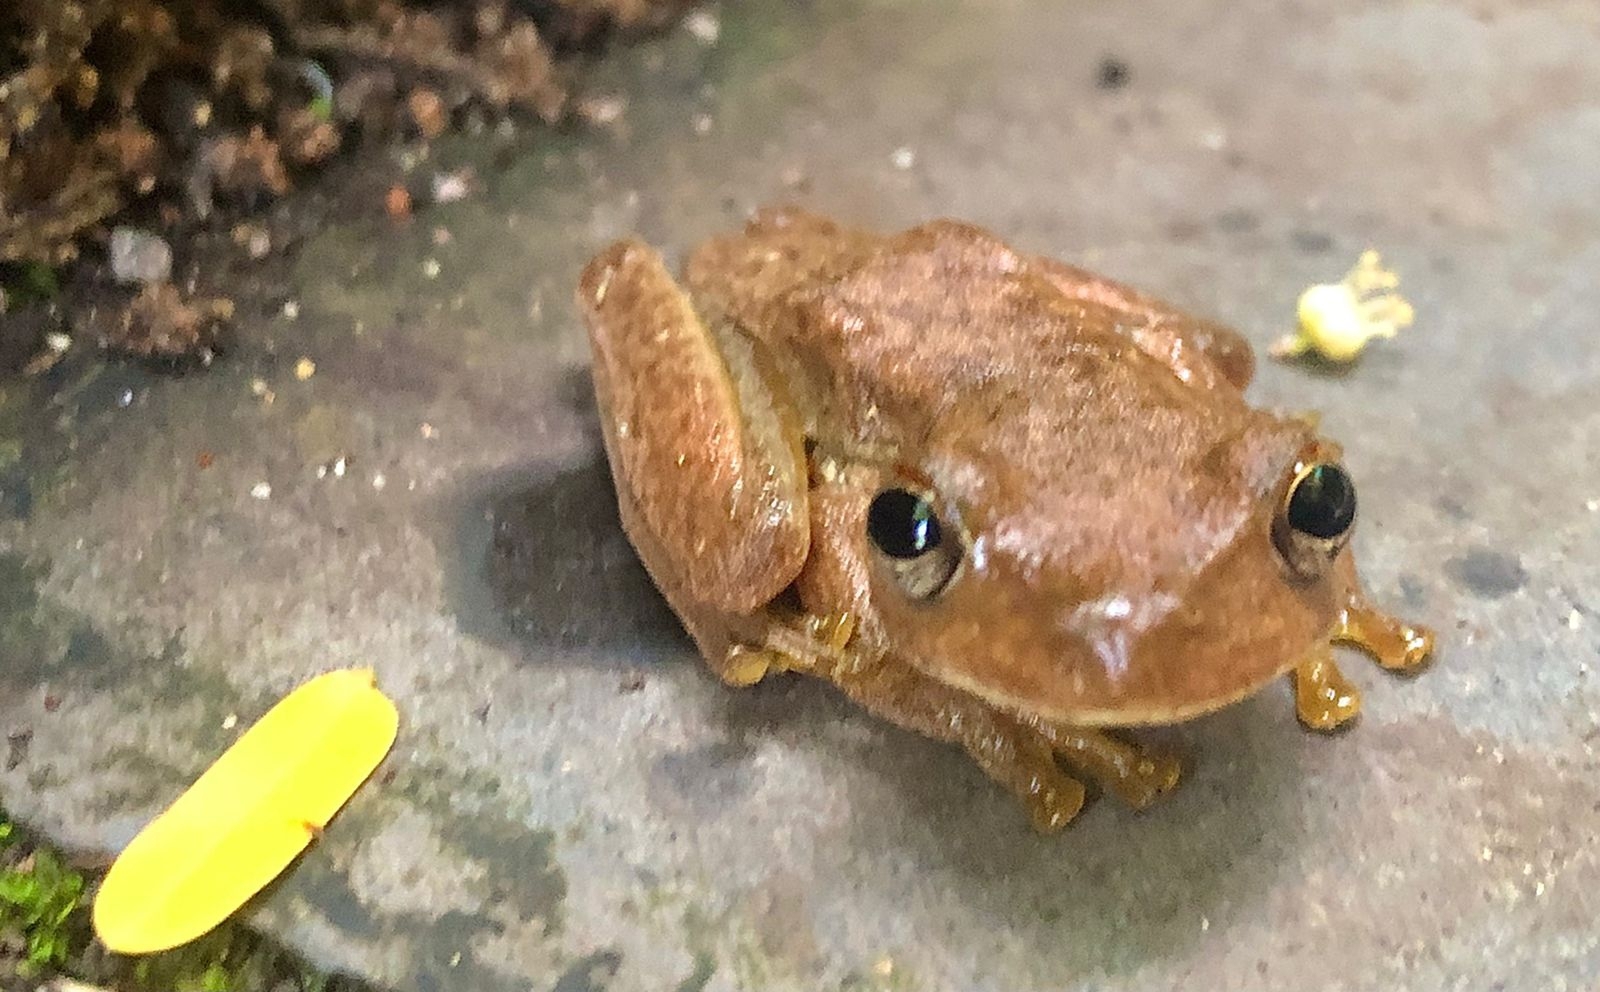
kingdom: Animalia
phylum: Chordata
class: Amphibia
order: Anura
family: Hylidae
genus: Rheohyla
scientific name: Rheohyla miotympanum
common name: Small-eard hyla
